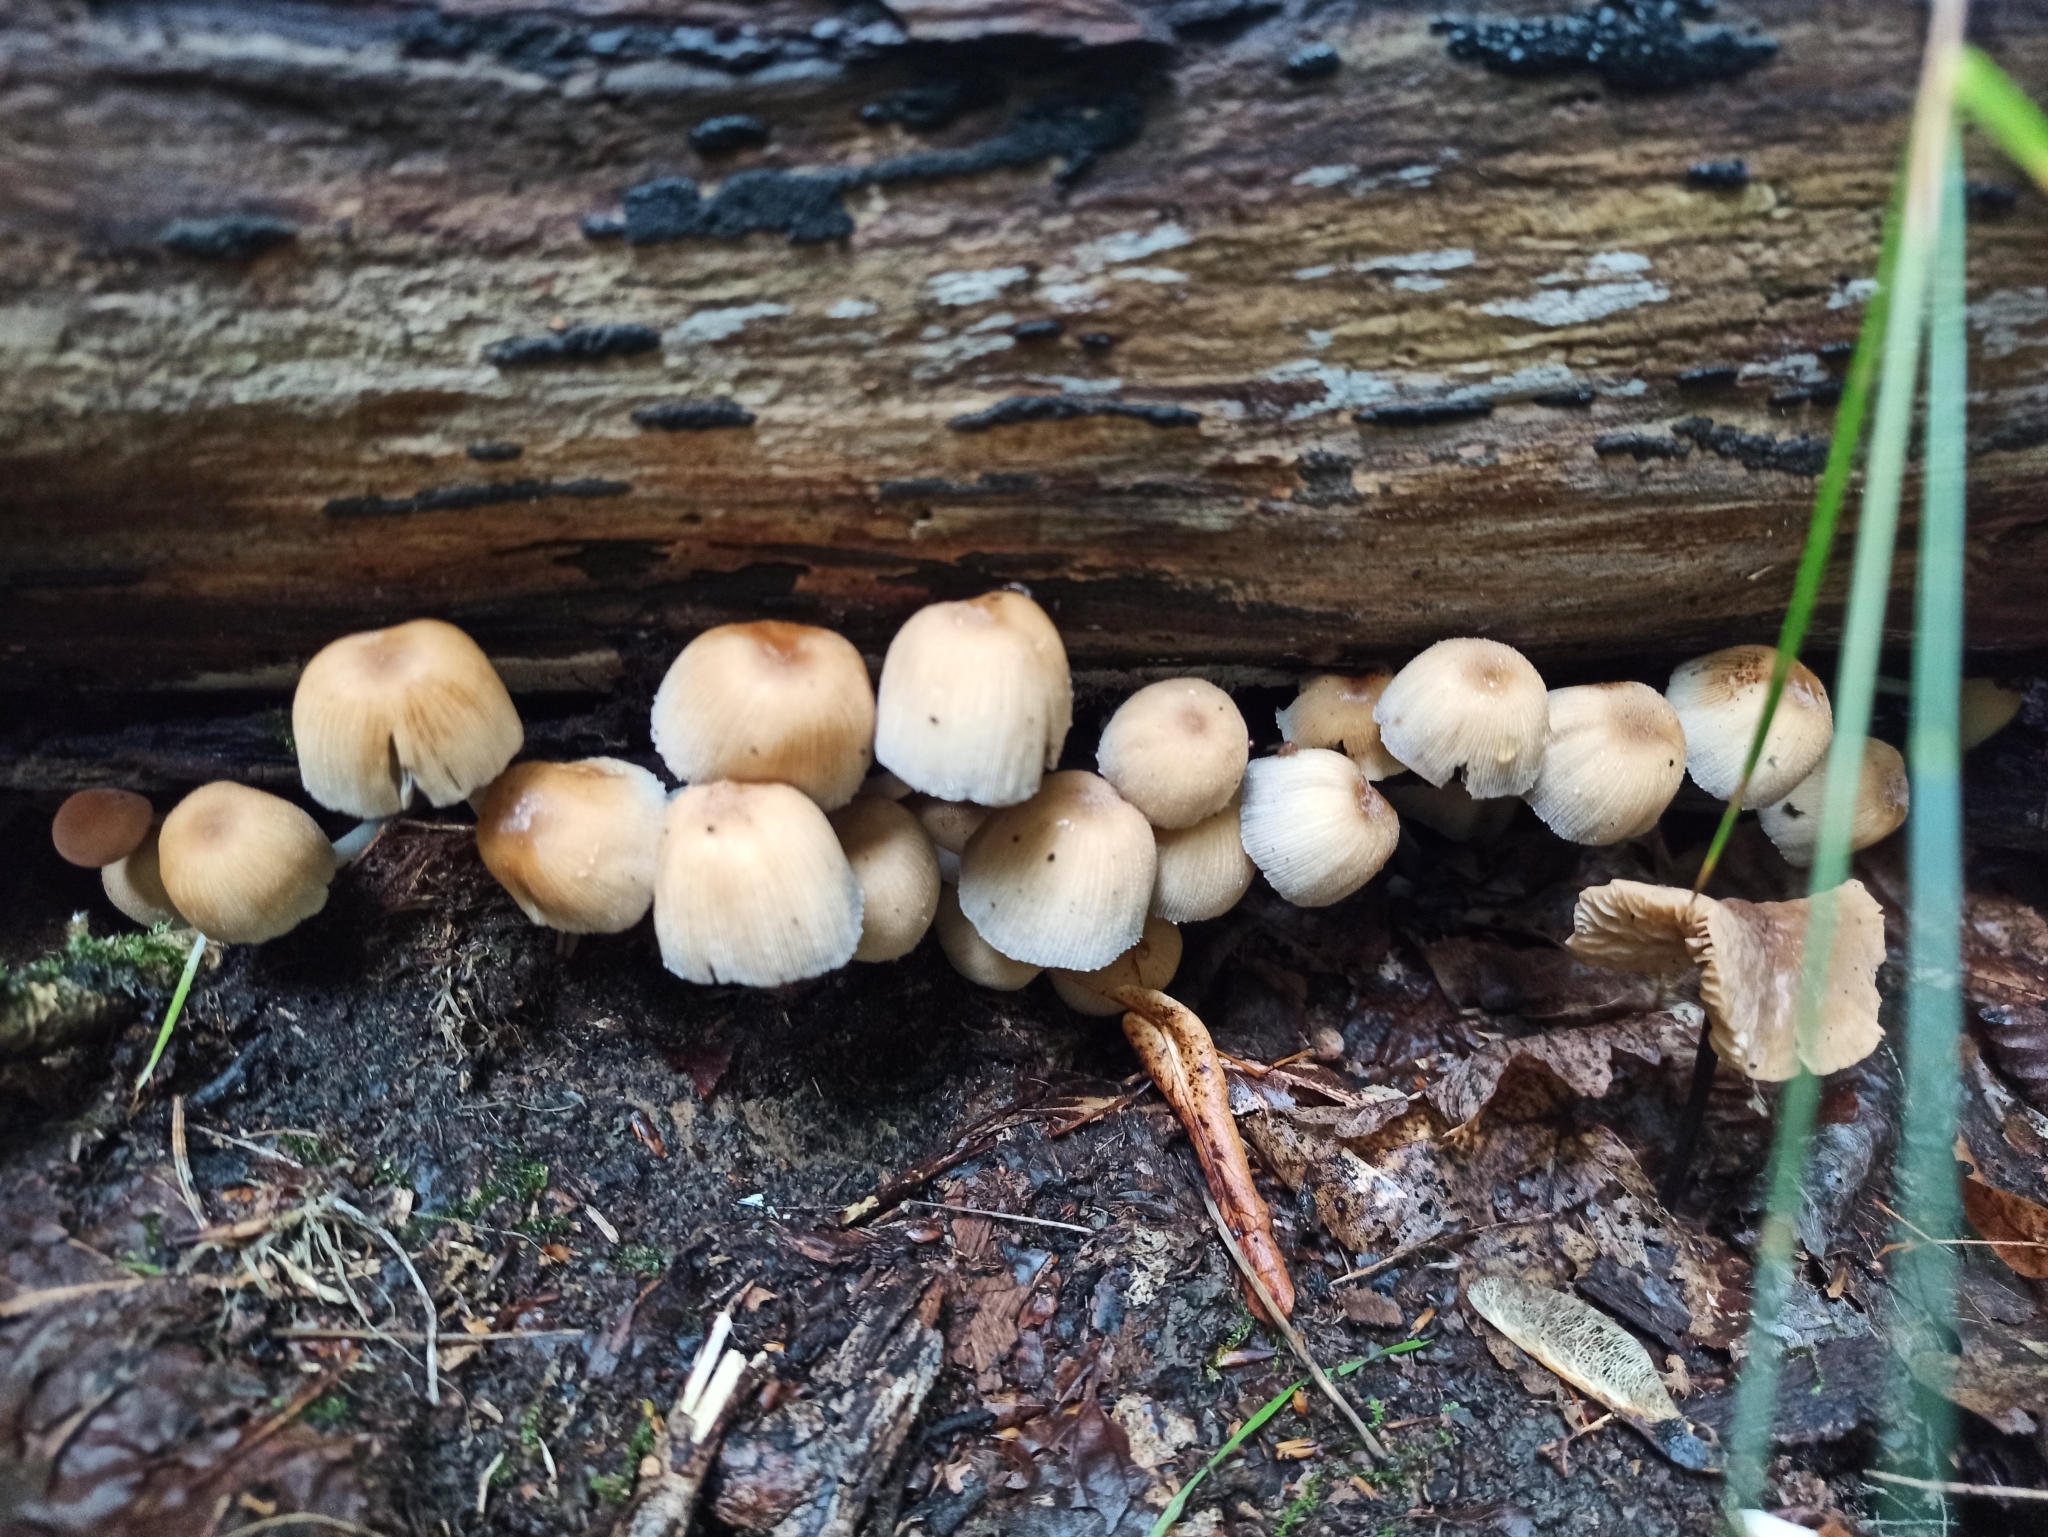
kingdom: Fungi
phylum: Basidiomycota
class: Agaricomycetes
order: Agaricales
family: Psathyrellaceae
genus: Coprinellus
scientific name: Coprinellus micaceus
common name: Glistening ink-cap
